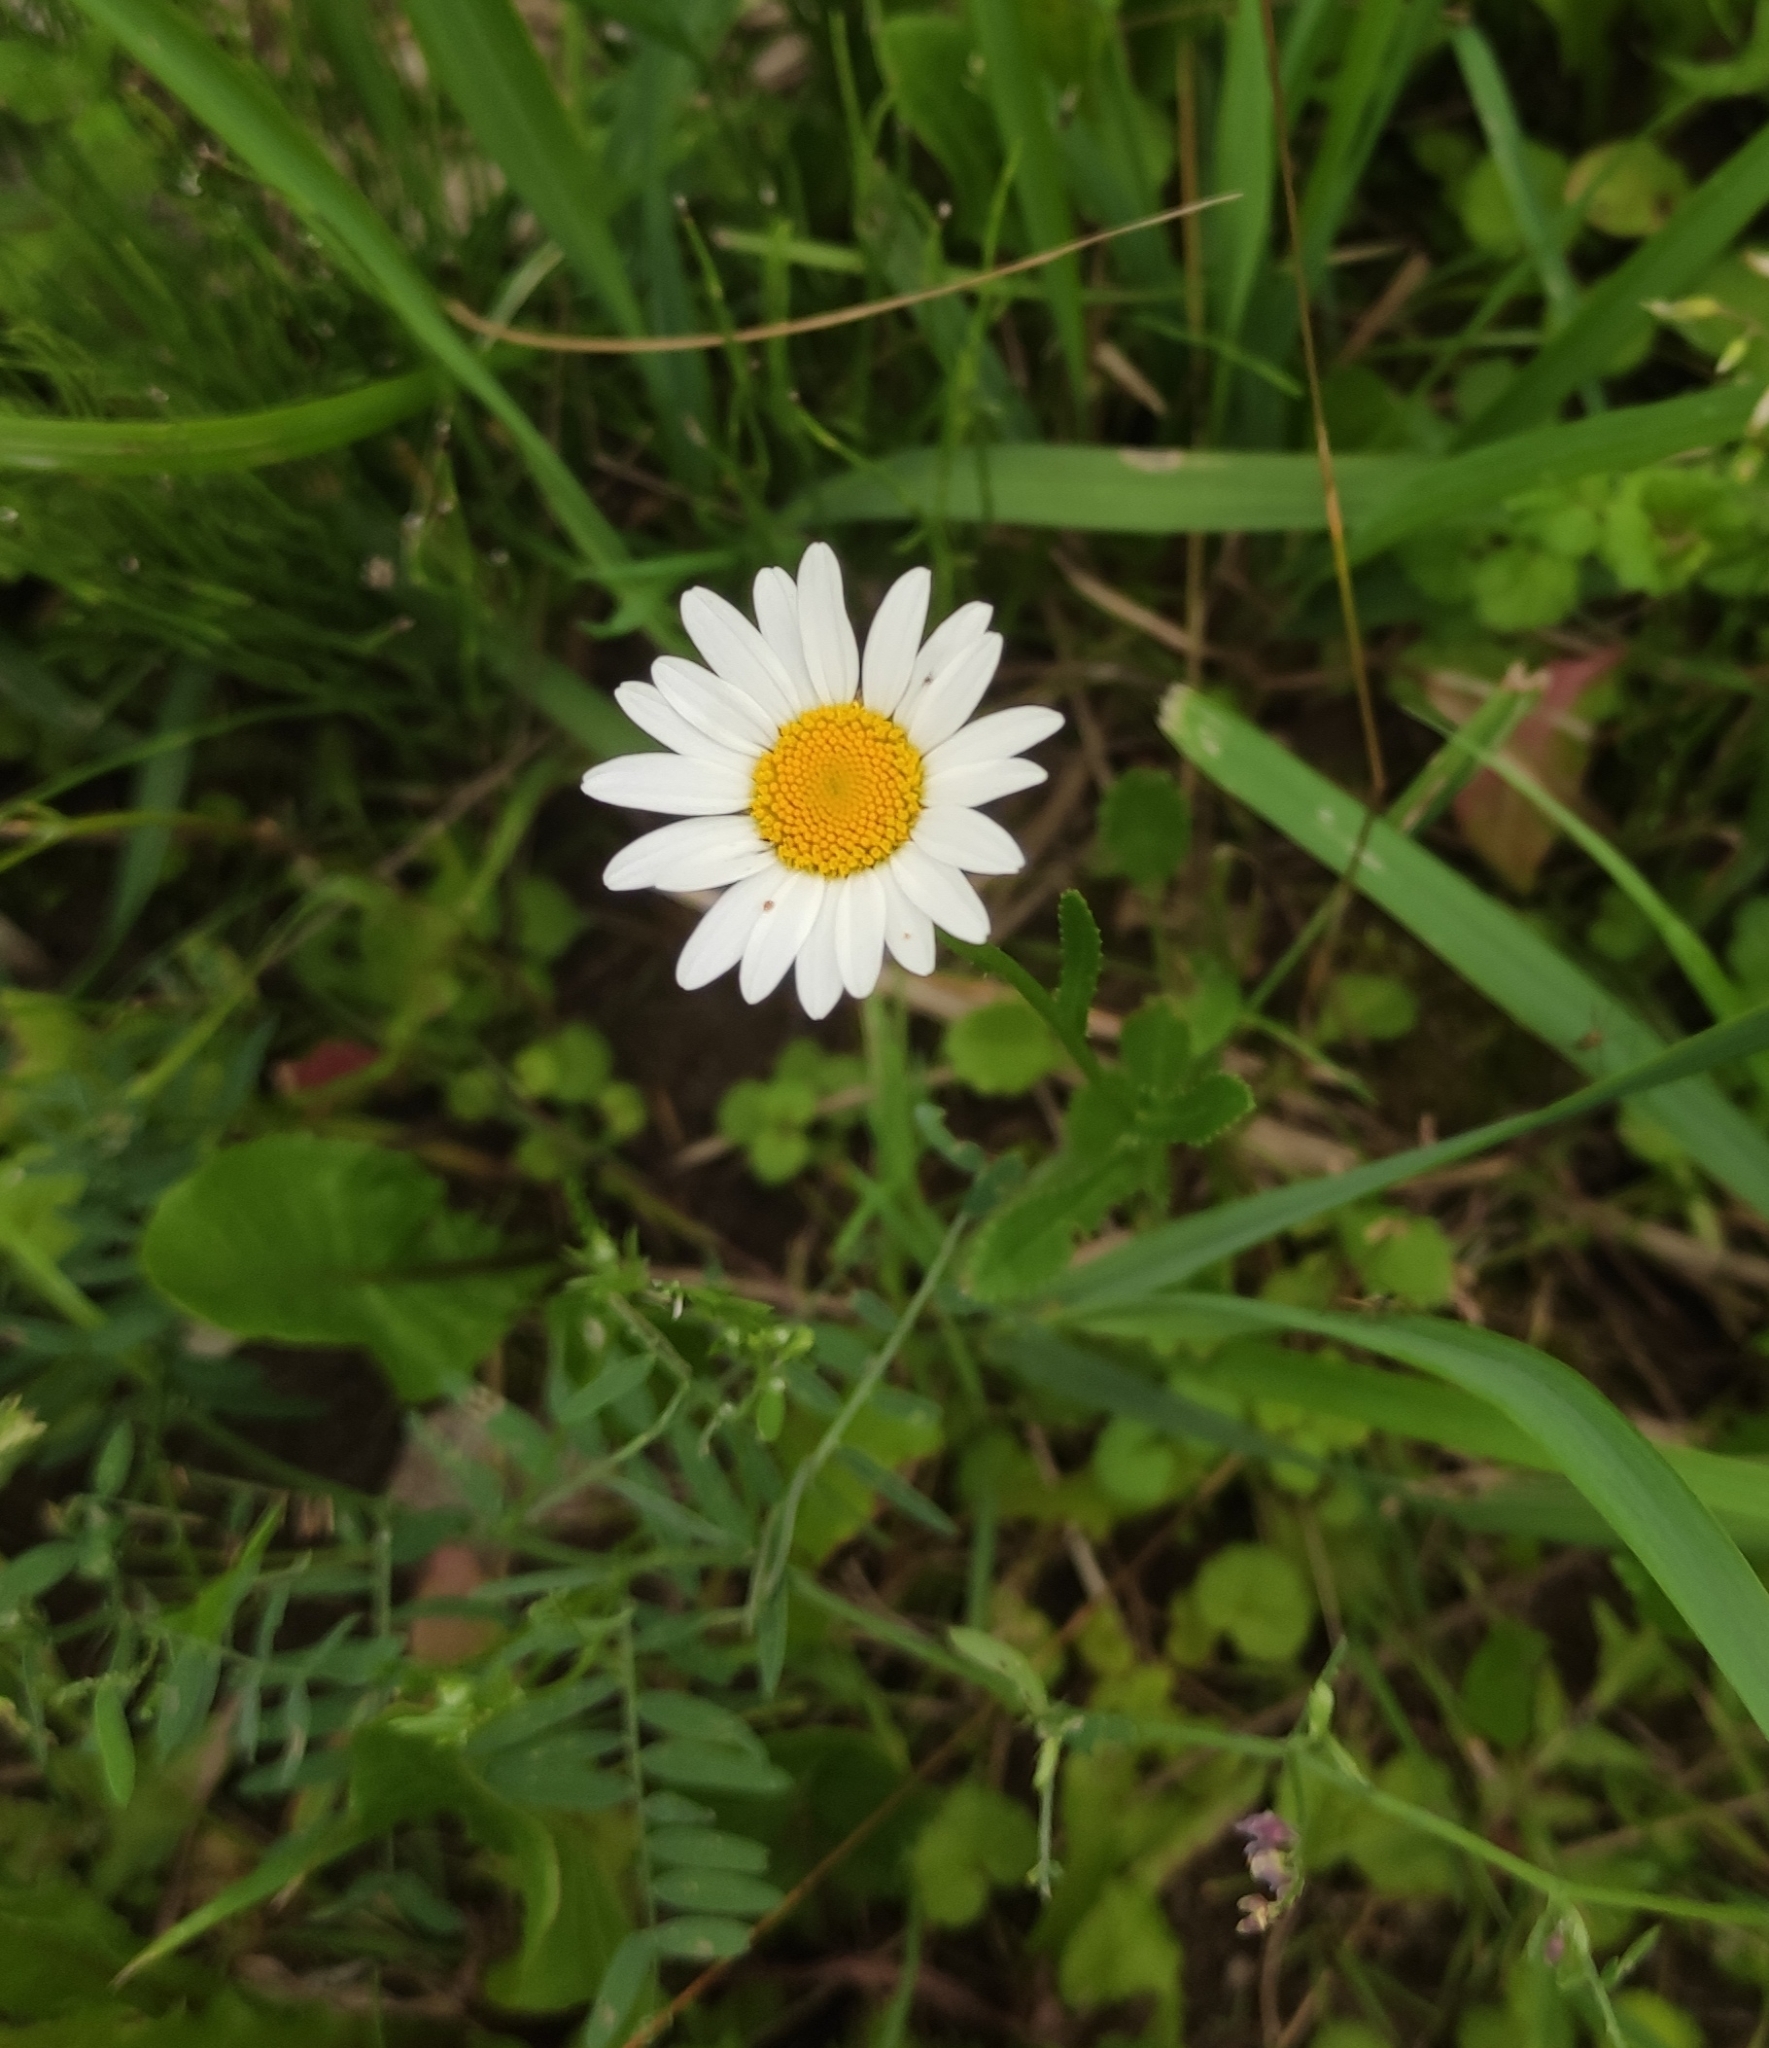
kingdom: Plantae
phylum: Tracheophyta
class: Magnoliopsida
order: Asterales
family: Asteraceae
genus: Leucanthemum
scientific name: Leucanthemum vulgare
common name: Oxeye daisy
